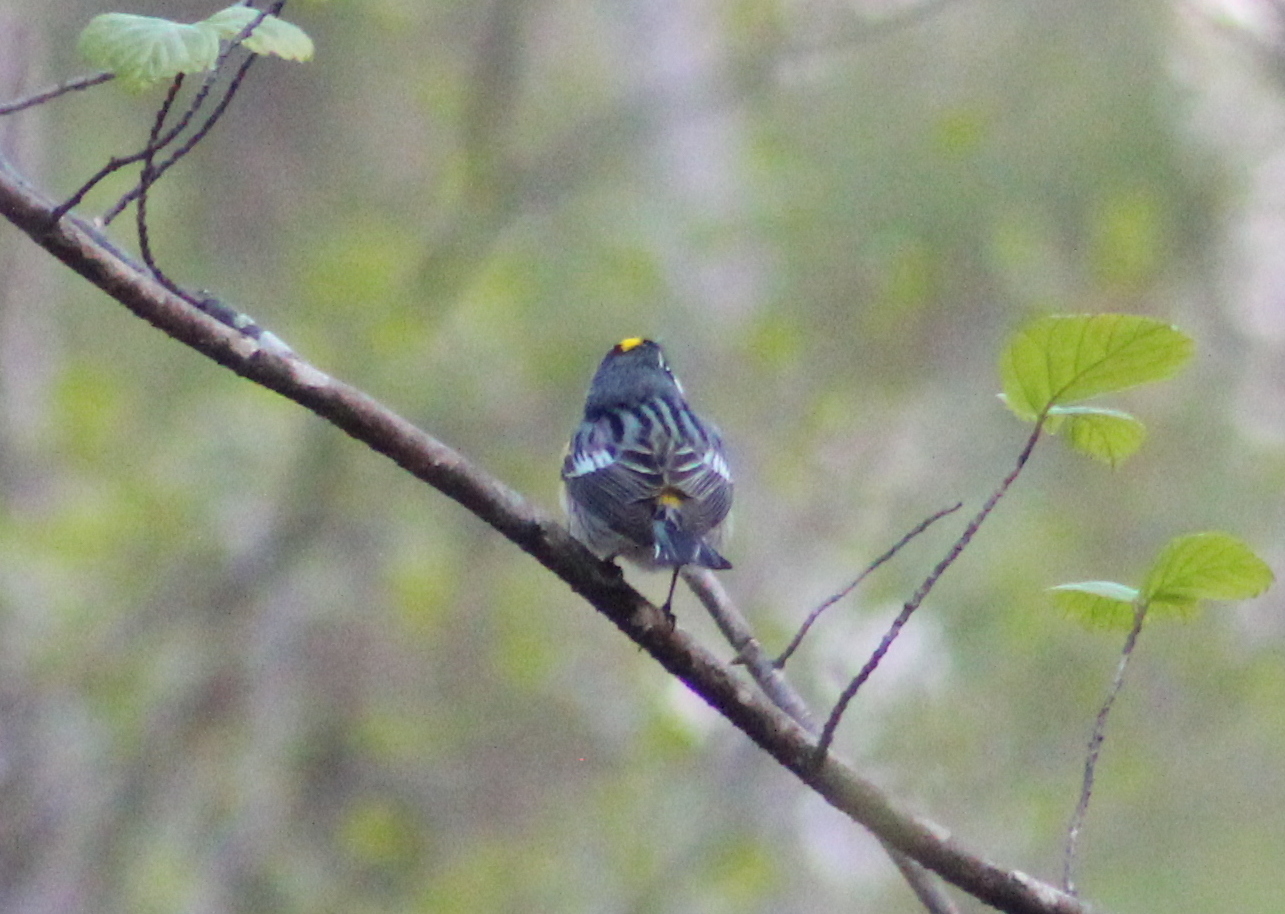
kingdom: Animalia
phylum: Chordata
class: Aves
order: Passeriformes
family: Parulidae
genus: Setophaga
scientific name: Setophaga coronata
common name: Myrtle warbler
